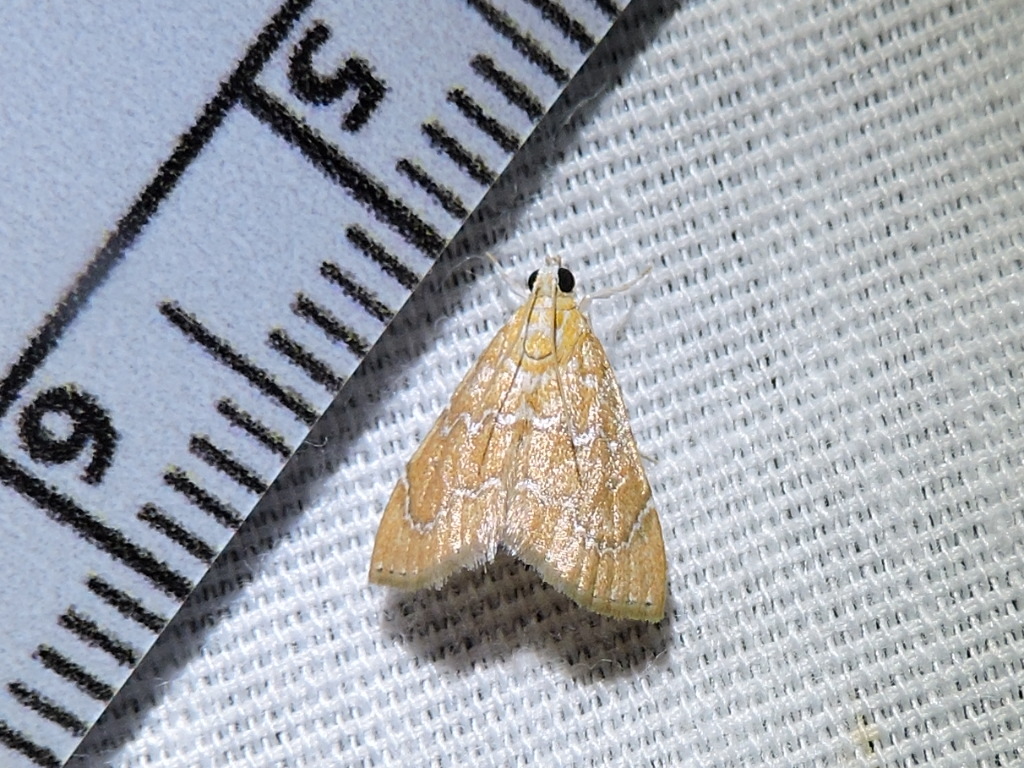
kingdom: Animalia
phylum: Arthropoda
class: Insecta
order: Lepidoptera
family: Crambidae
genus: Glaphyria
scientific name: Glaphyria sesquistrialis
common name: White-roped glaphyria
